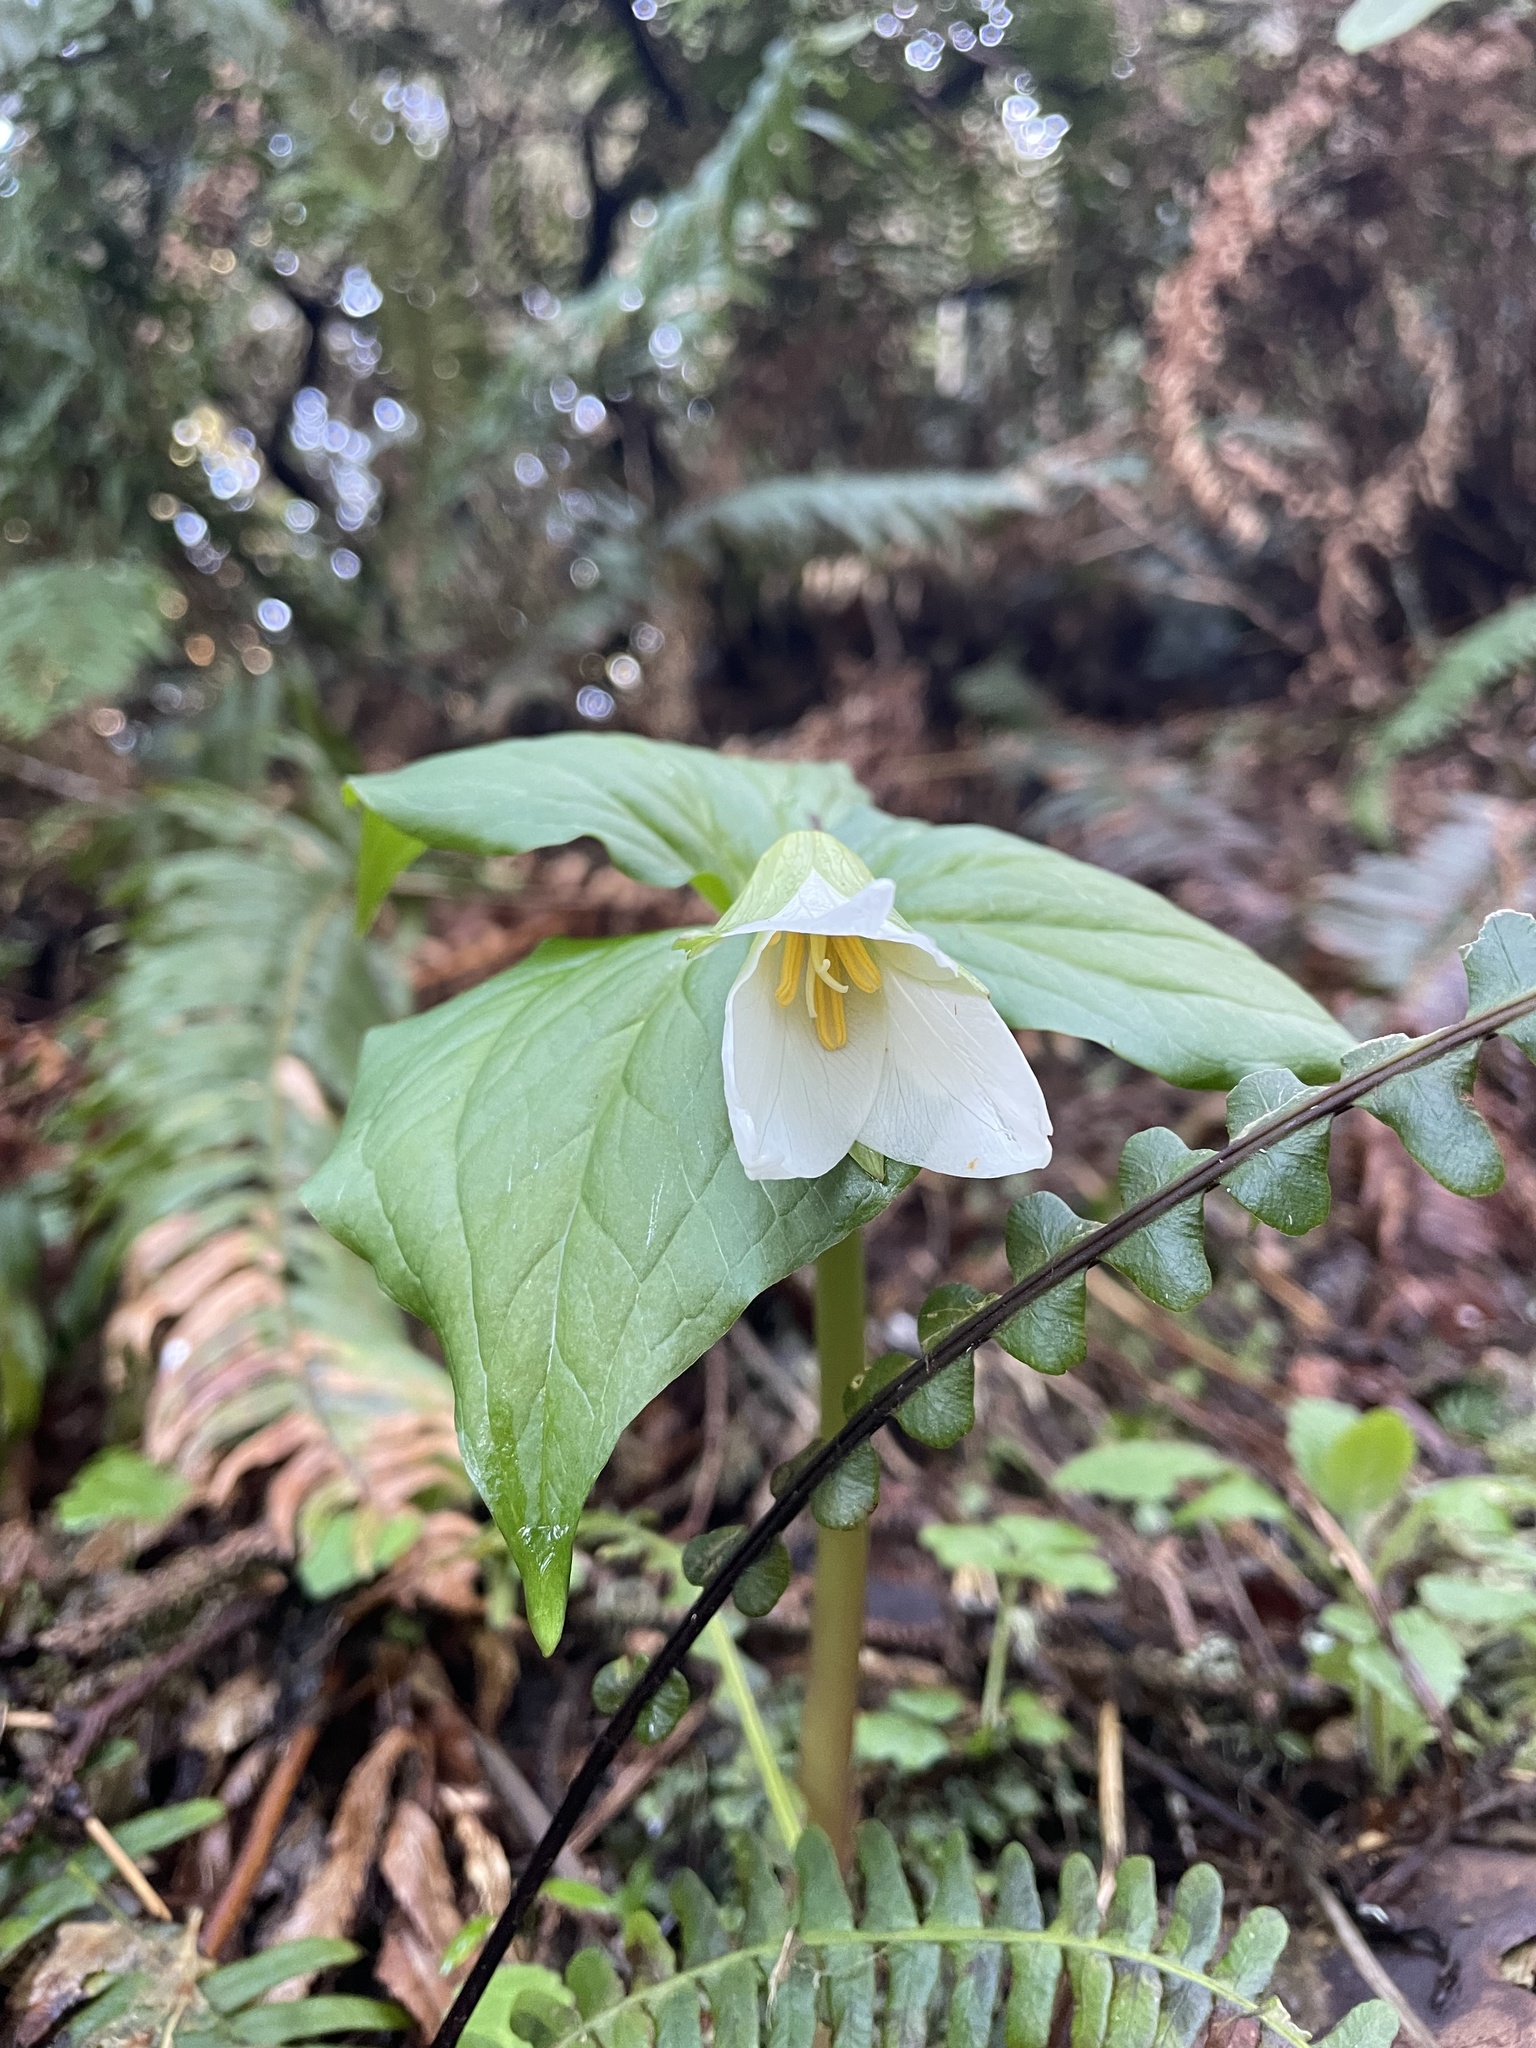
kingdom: Plantae
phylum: Tracheophyta
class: Liliopsida
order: Liliales
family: Melanthiaceae
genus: Trillium
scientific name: Trillium ovatum
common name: Pacific trillium
